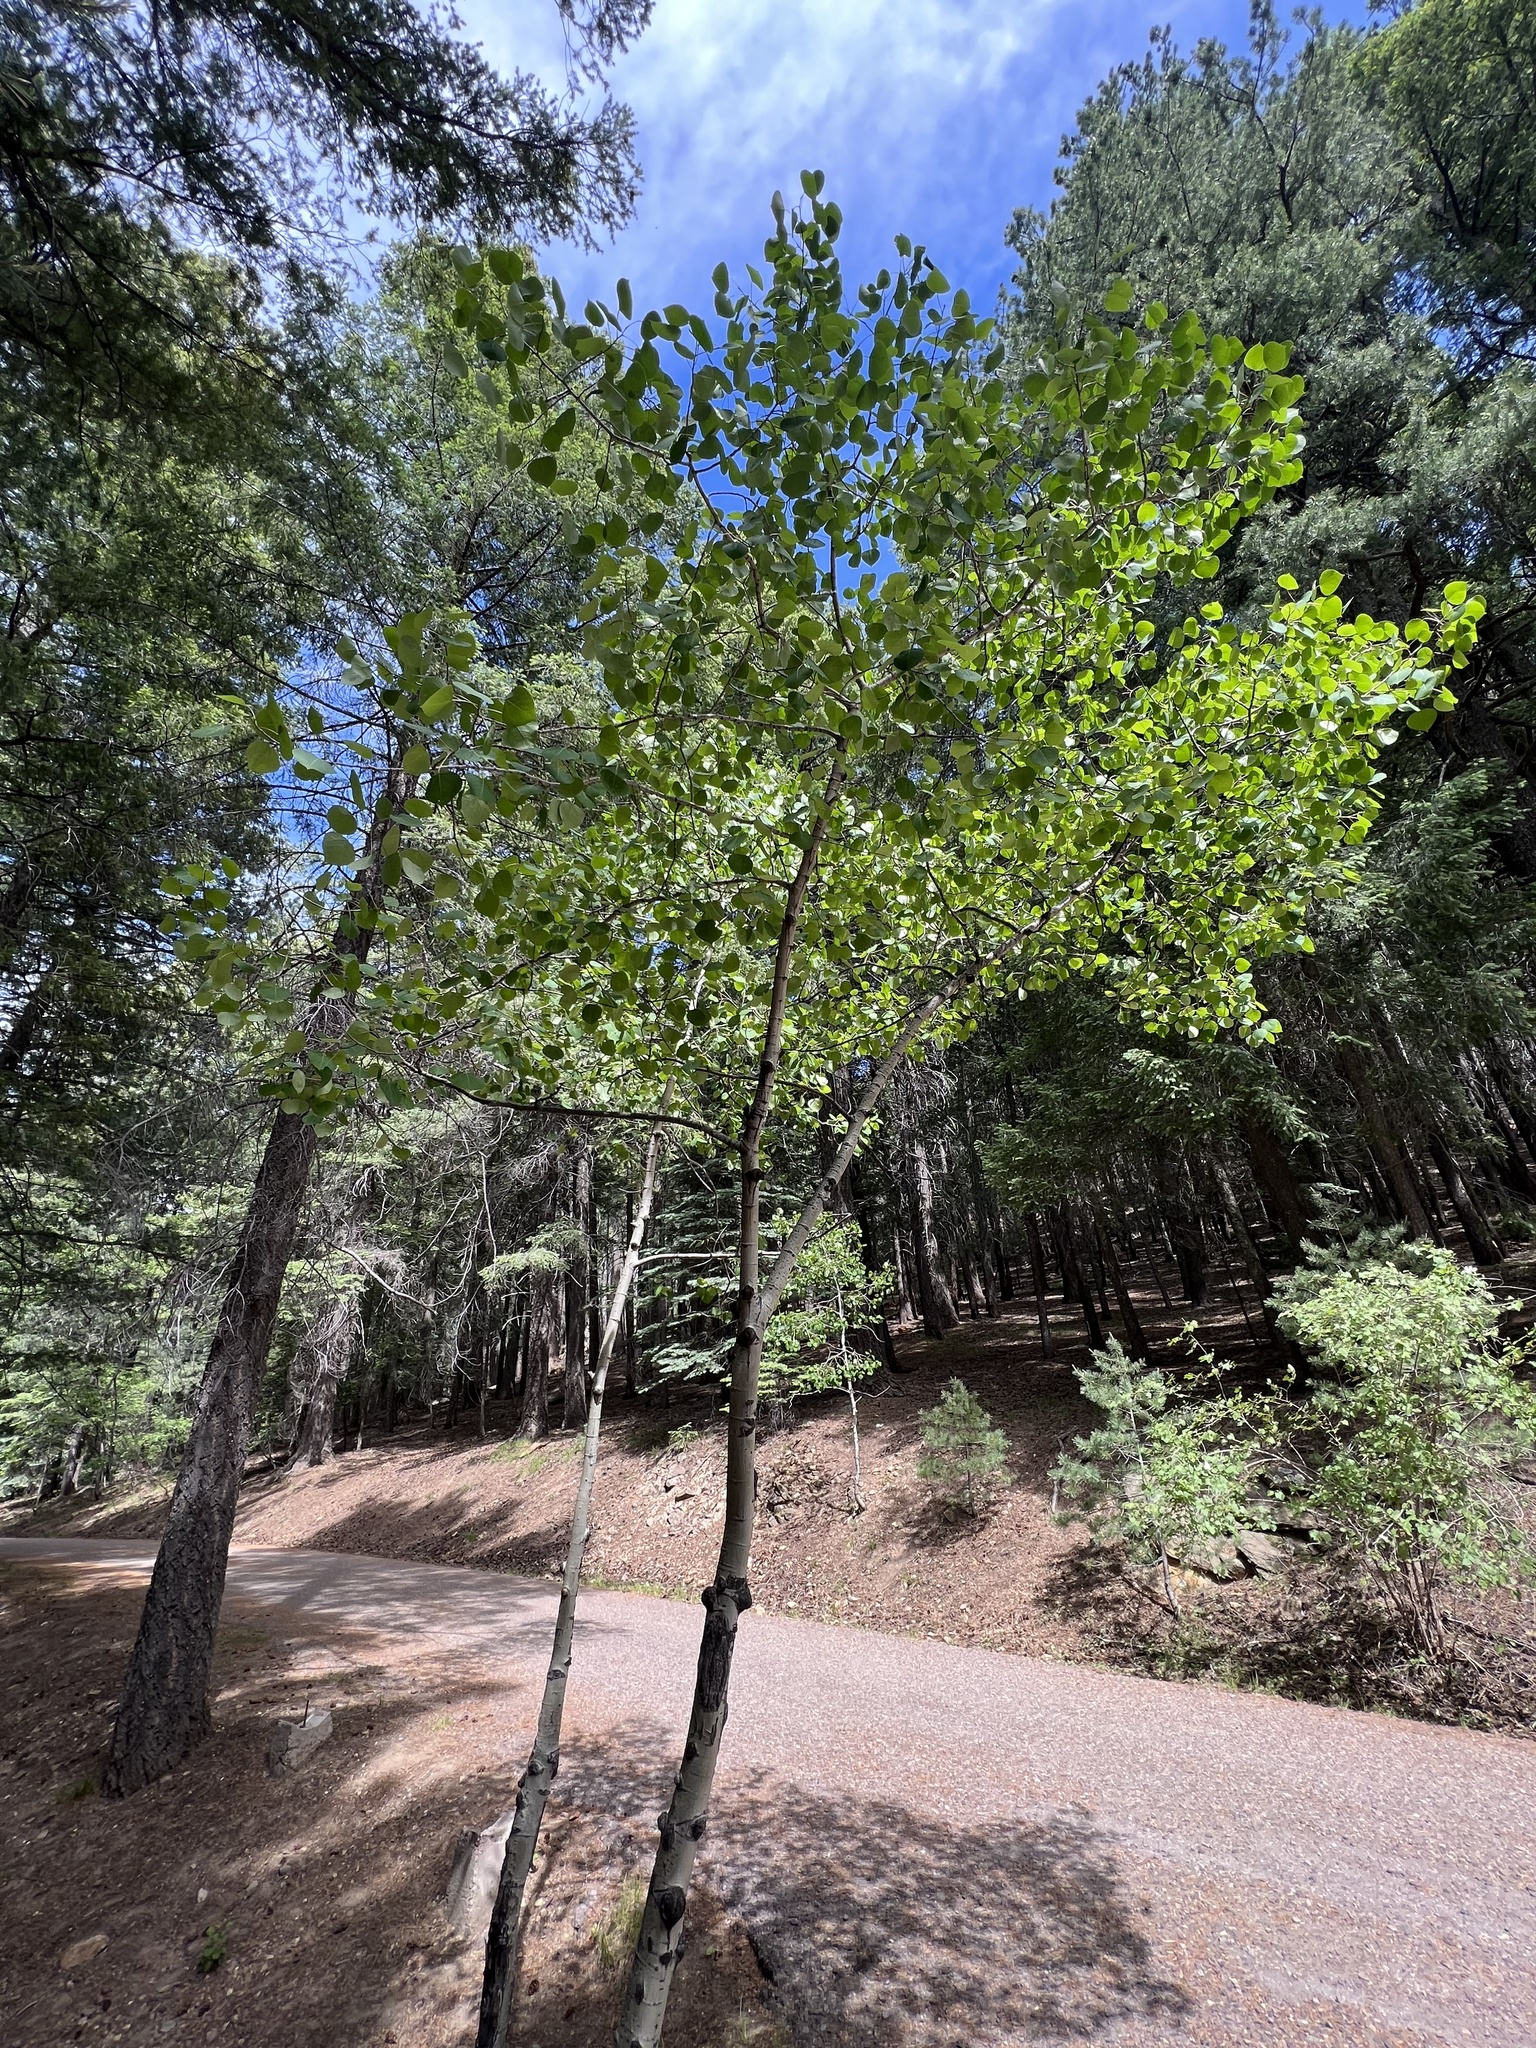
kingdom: Plantae
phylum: Tracheophyta
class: Magnoliopsida
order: Malpighiales
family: Salicaceae
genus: Populus
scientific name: Populus tremuloides
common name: Quaking aspen
